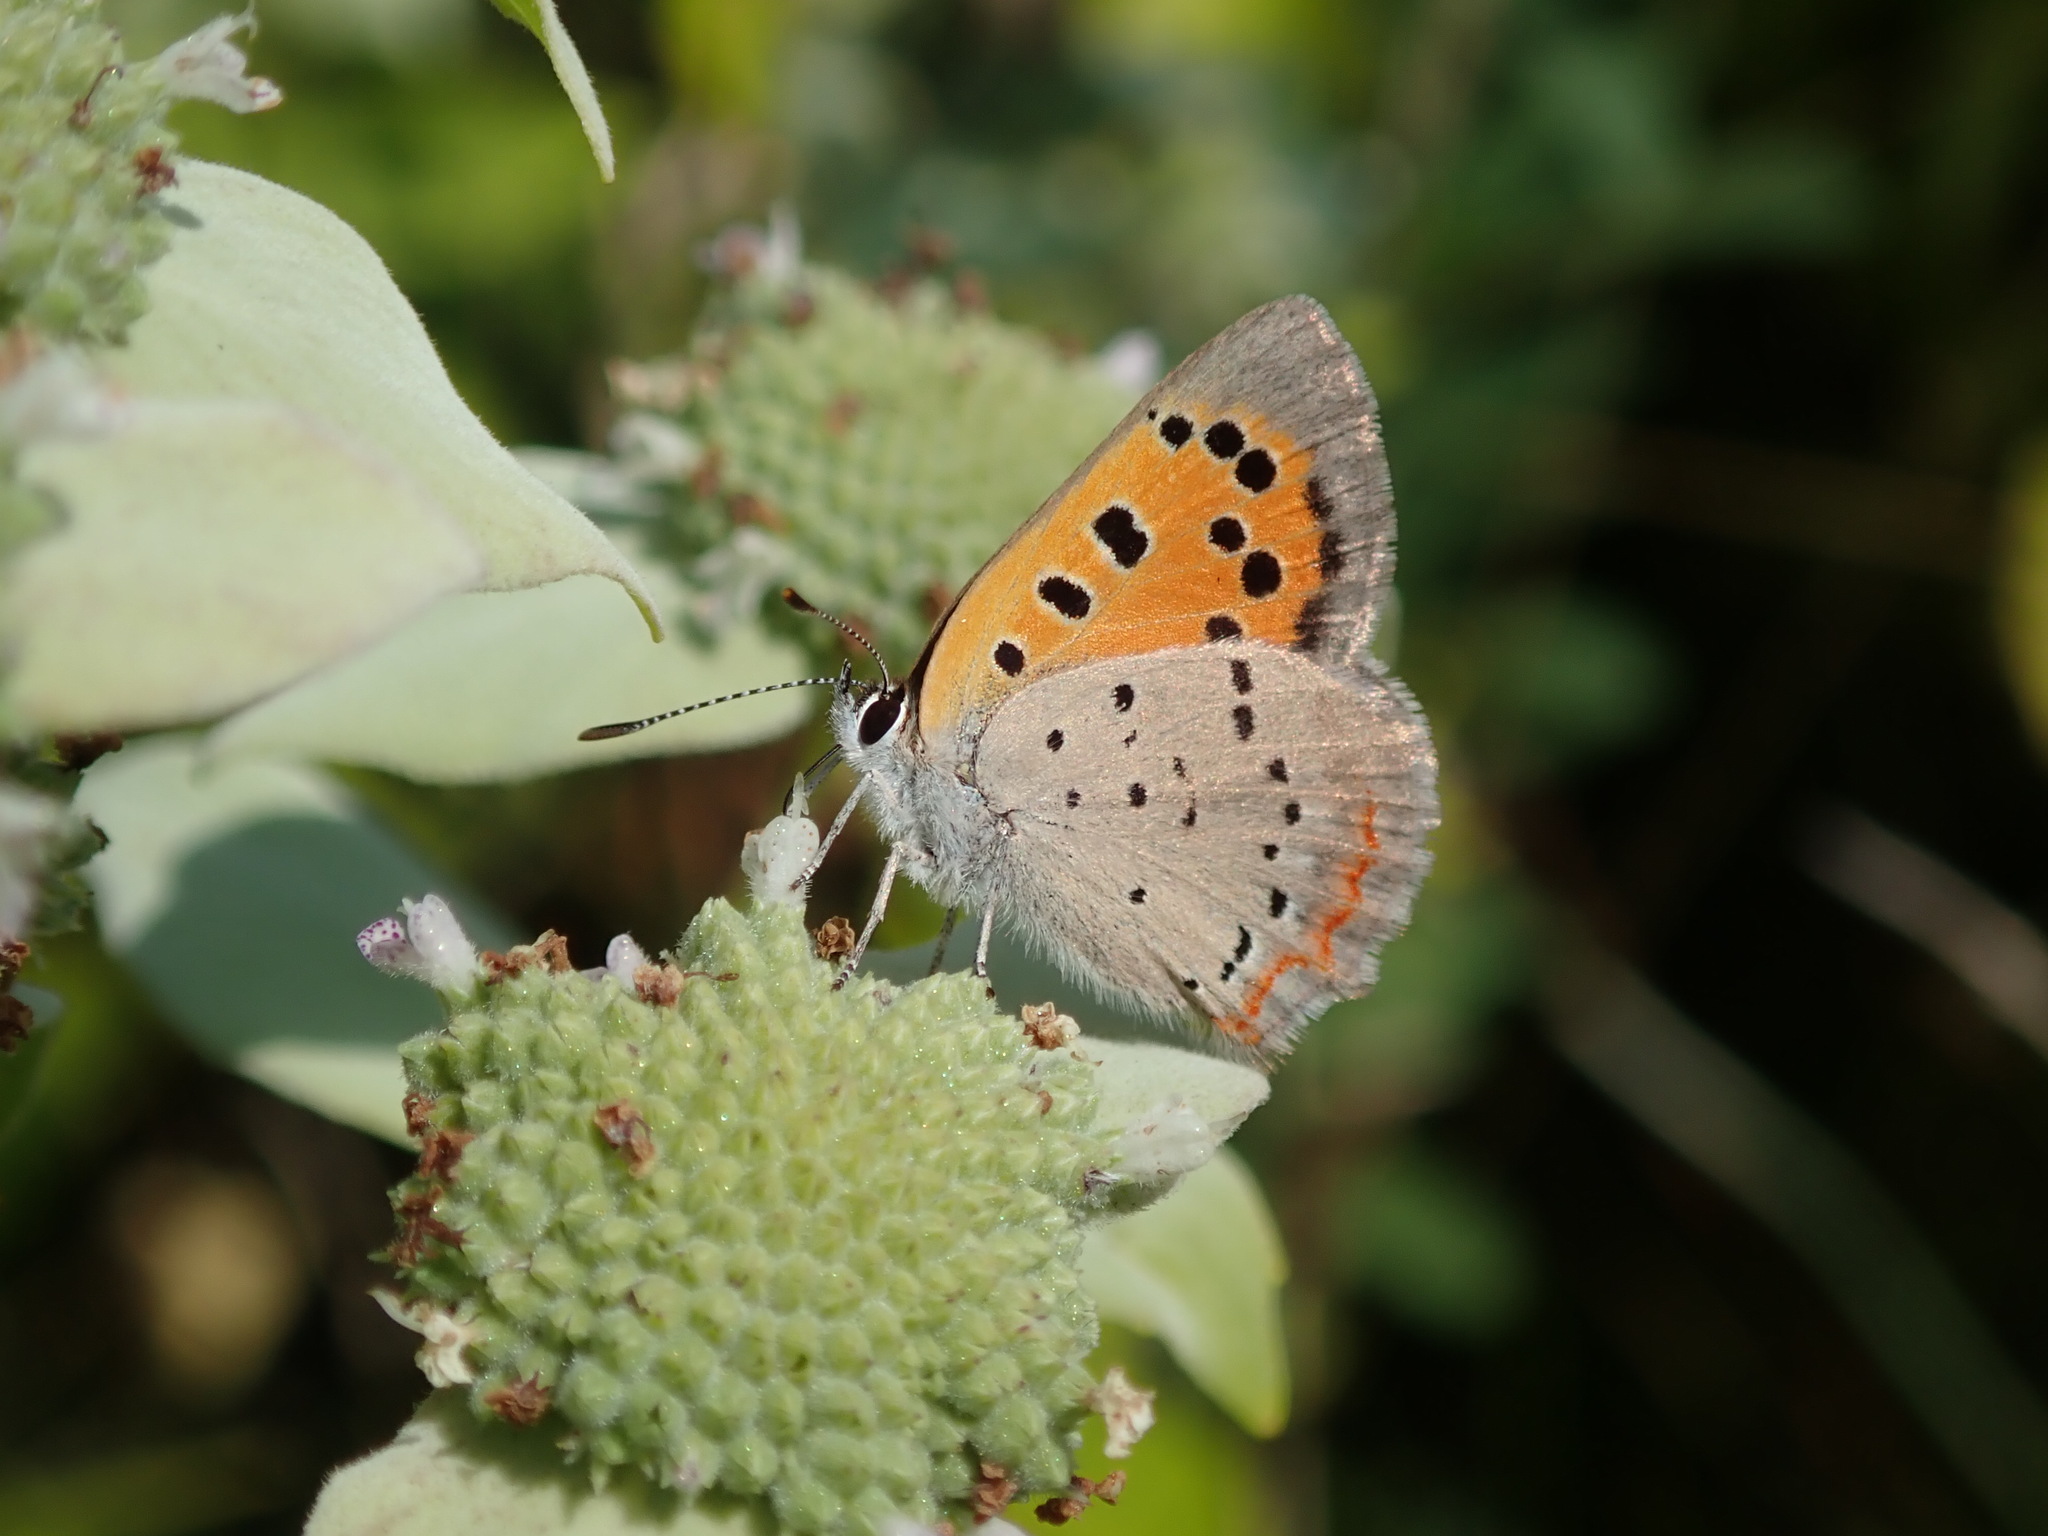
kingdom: Animalia
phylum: Arthropoda
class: Insecta
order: Lepidoptera
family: Lycaenidae
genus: Lycaena
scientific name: Lycaena hypophlaeas
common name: American copper
